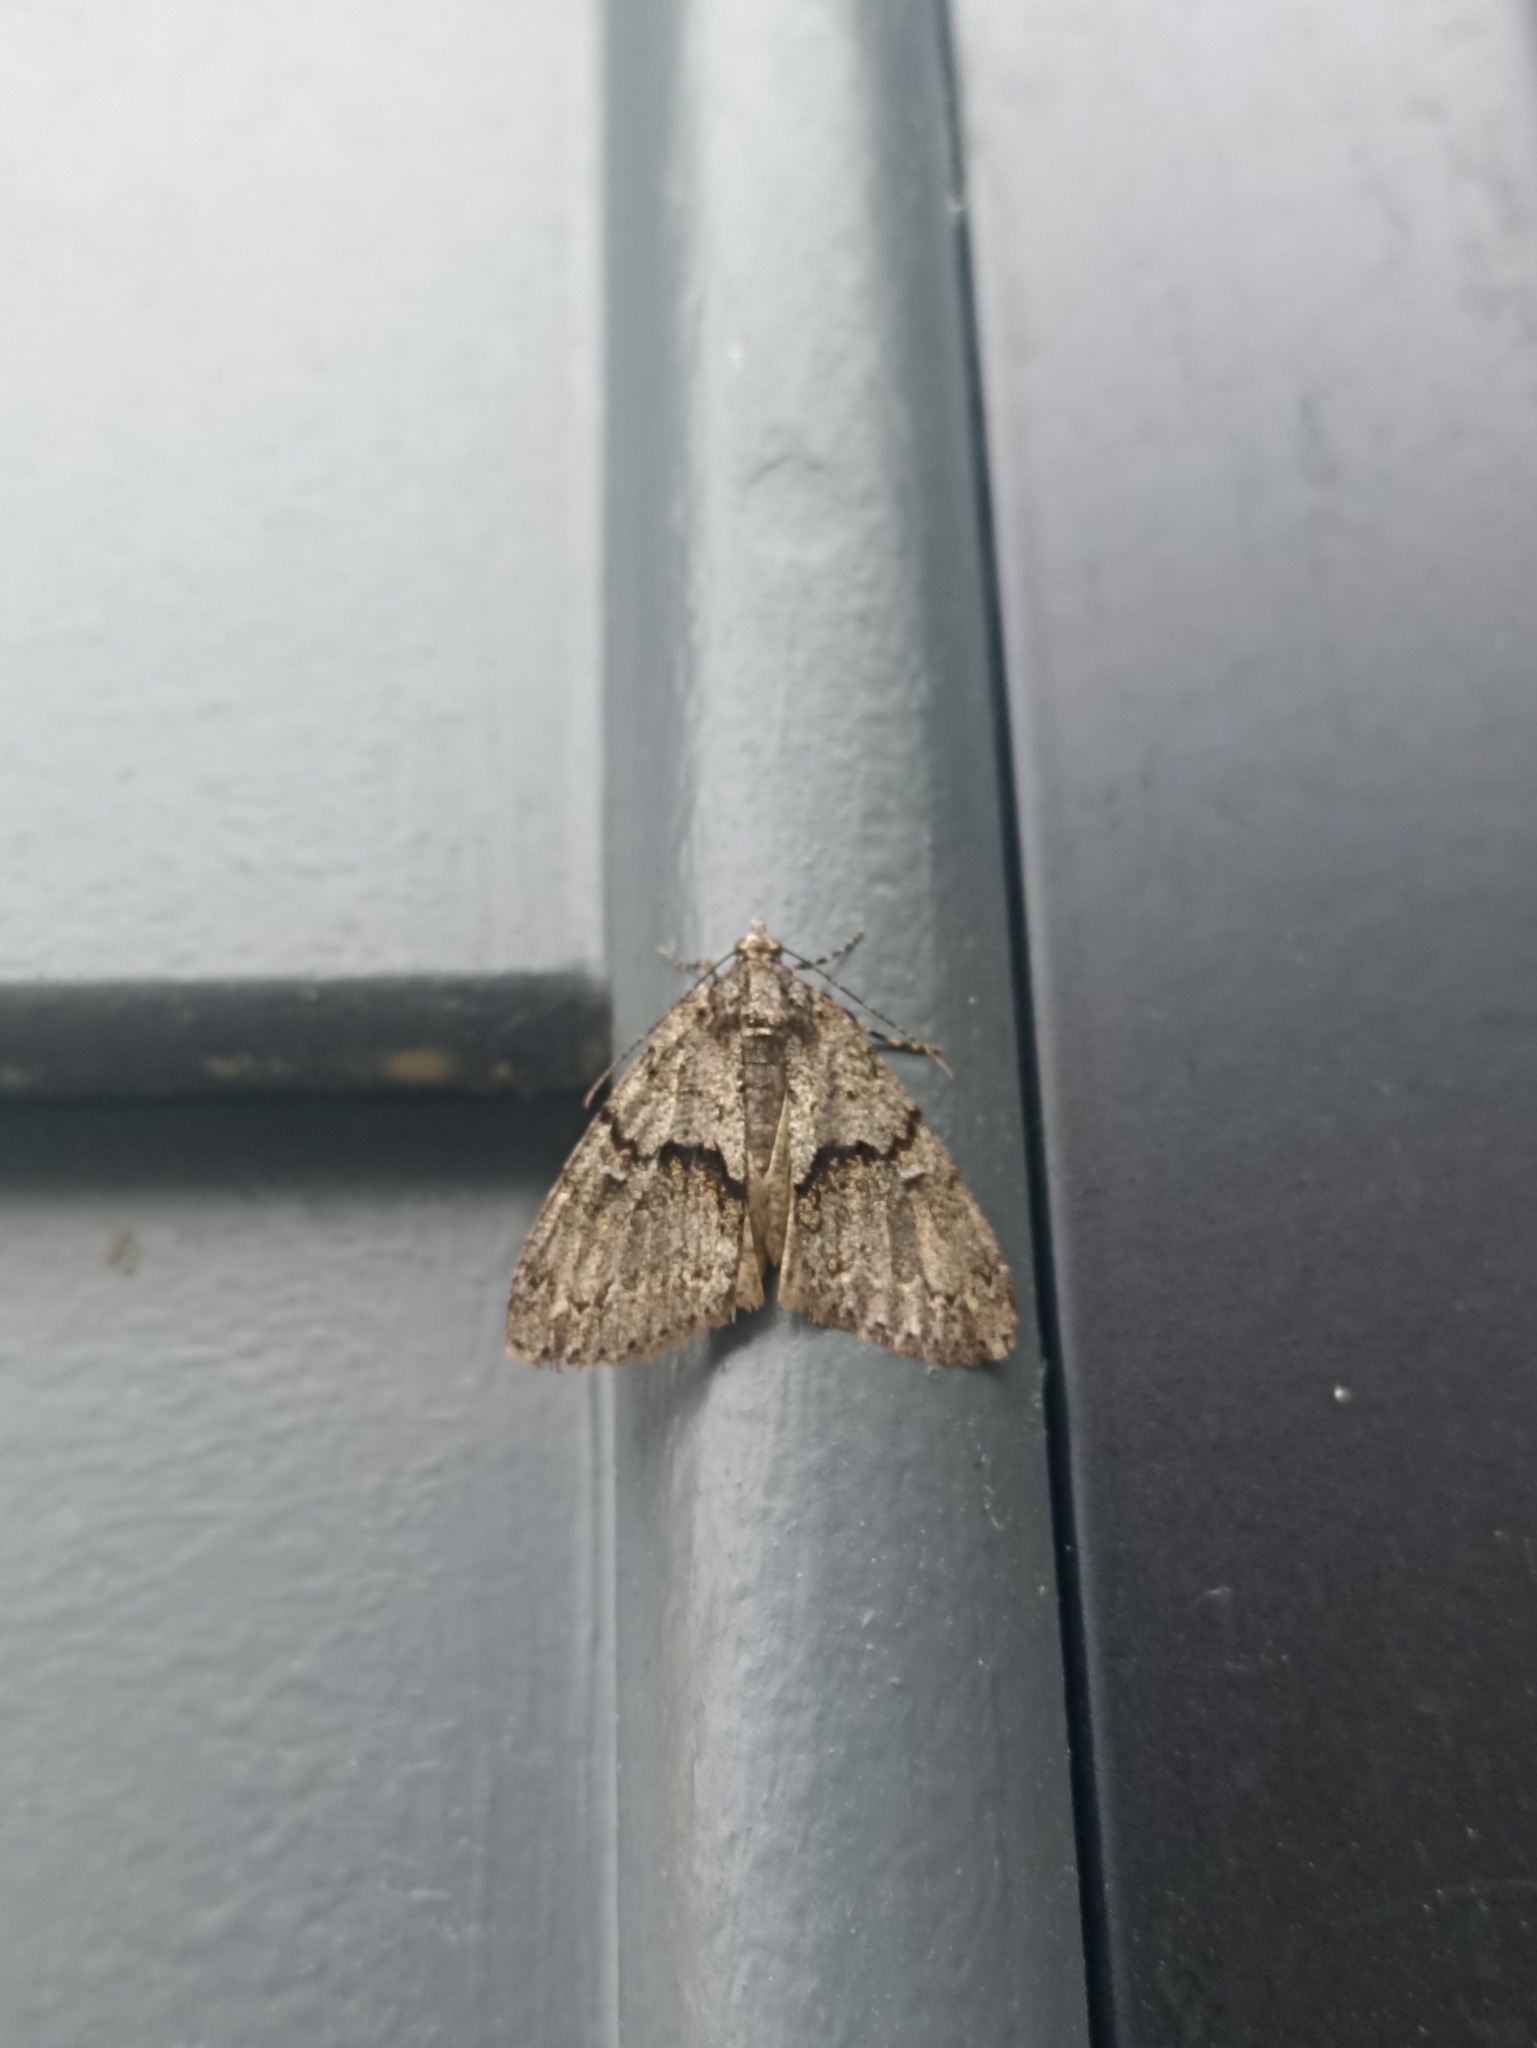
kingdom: Animalia
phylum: Arthropoda
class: Insecta
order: Lepidoptera
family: Geometridae
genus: Pseudocoremia
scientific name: Pseudocoremia suavis
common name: Common forest looper
